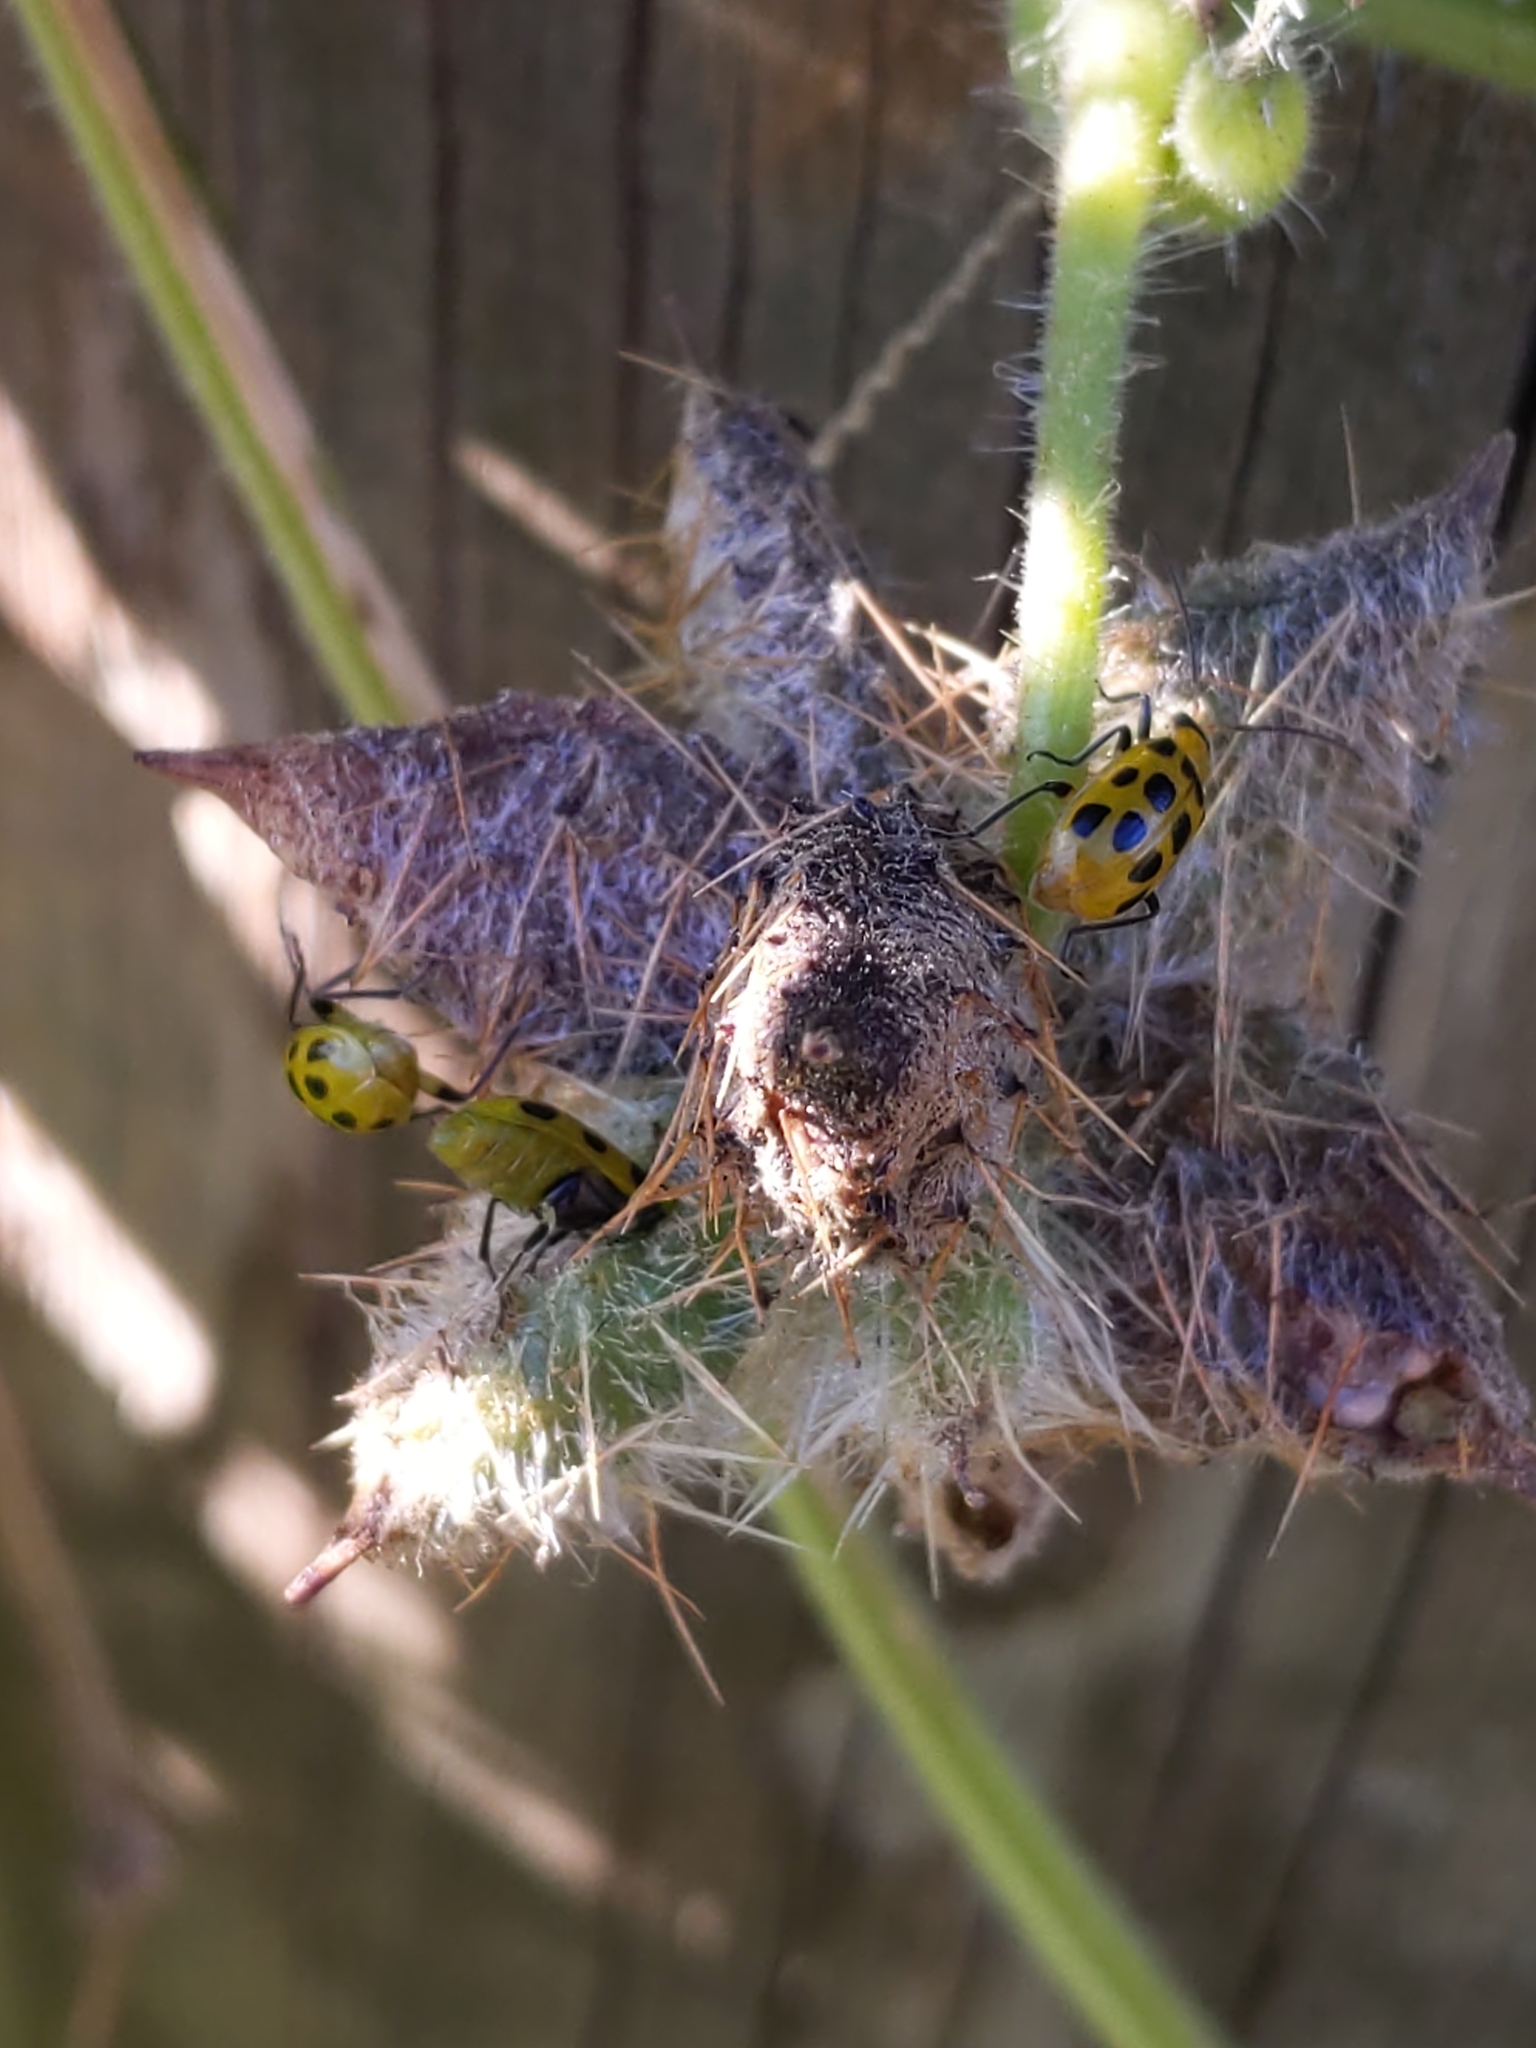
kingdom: Animalia
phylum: Arthropoda
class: Insecta
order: Coleoptera
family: Chrysomelidae
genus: Diabrotica
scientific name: Diabrotica undecimpunctata
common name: Spotted cucumber beetle
